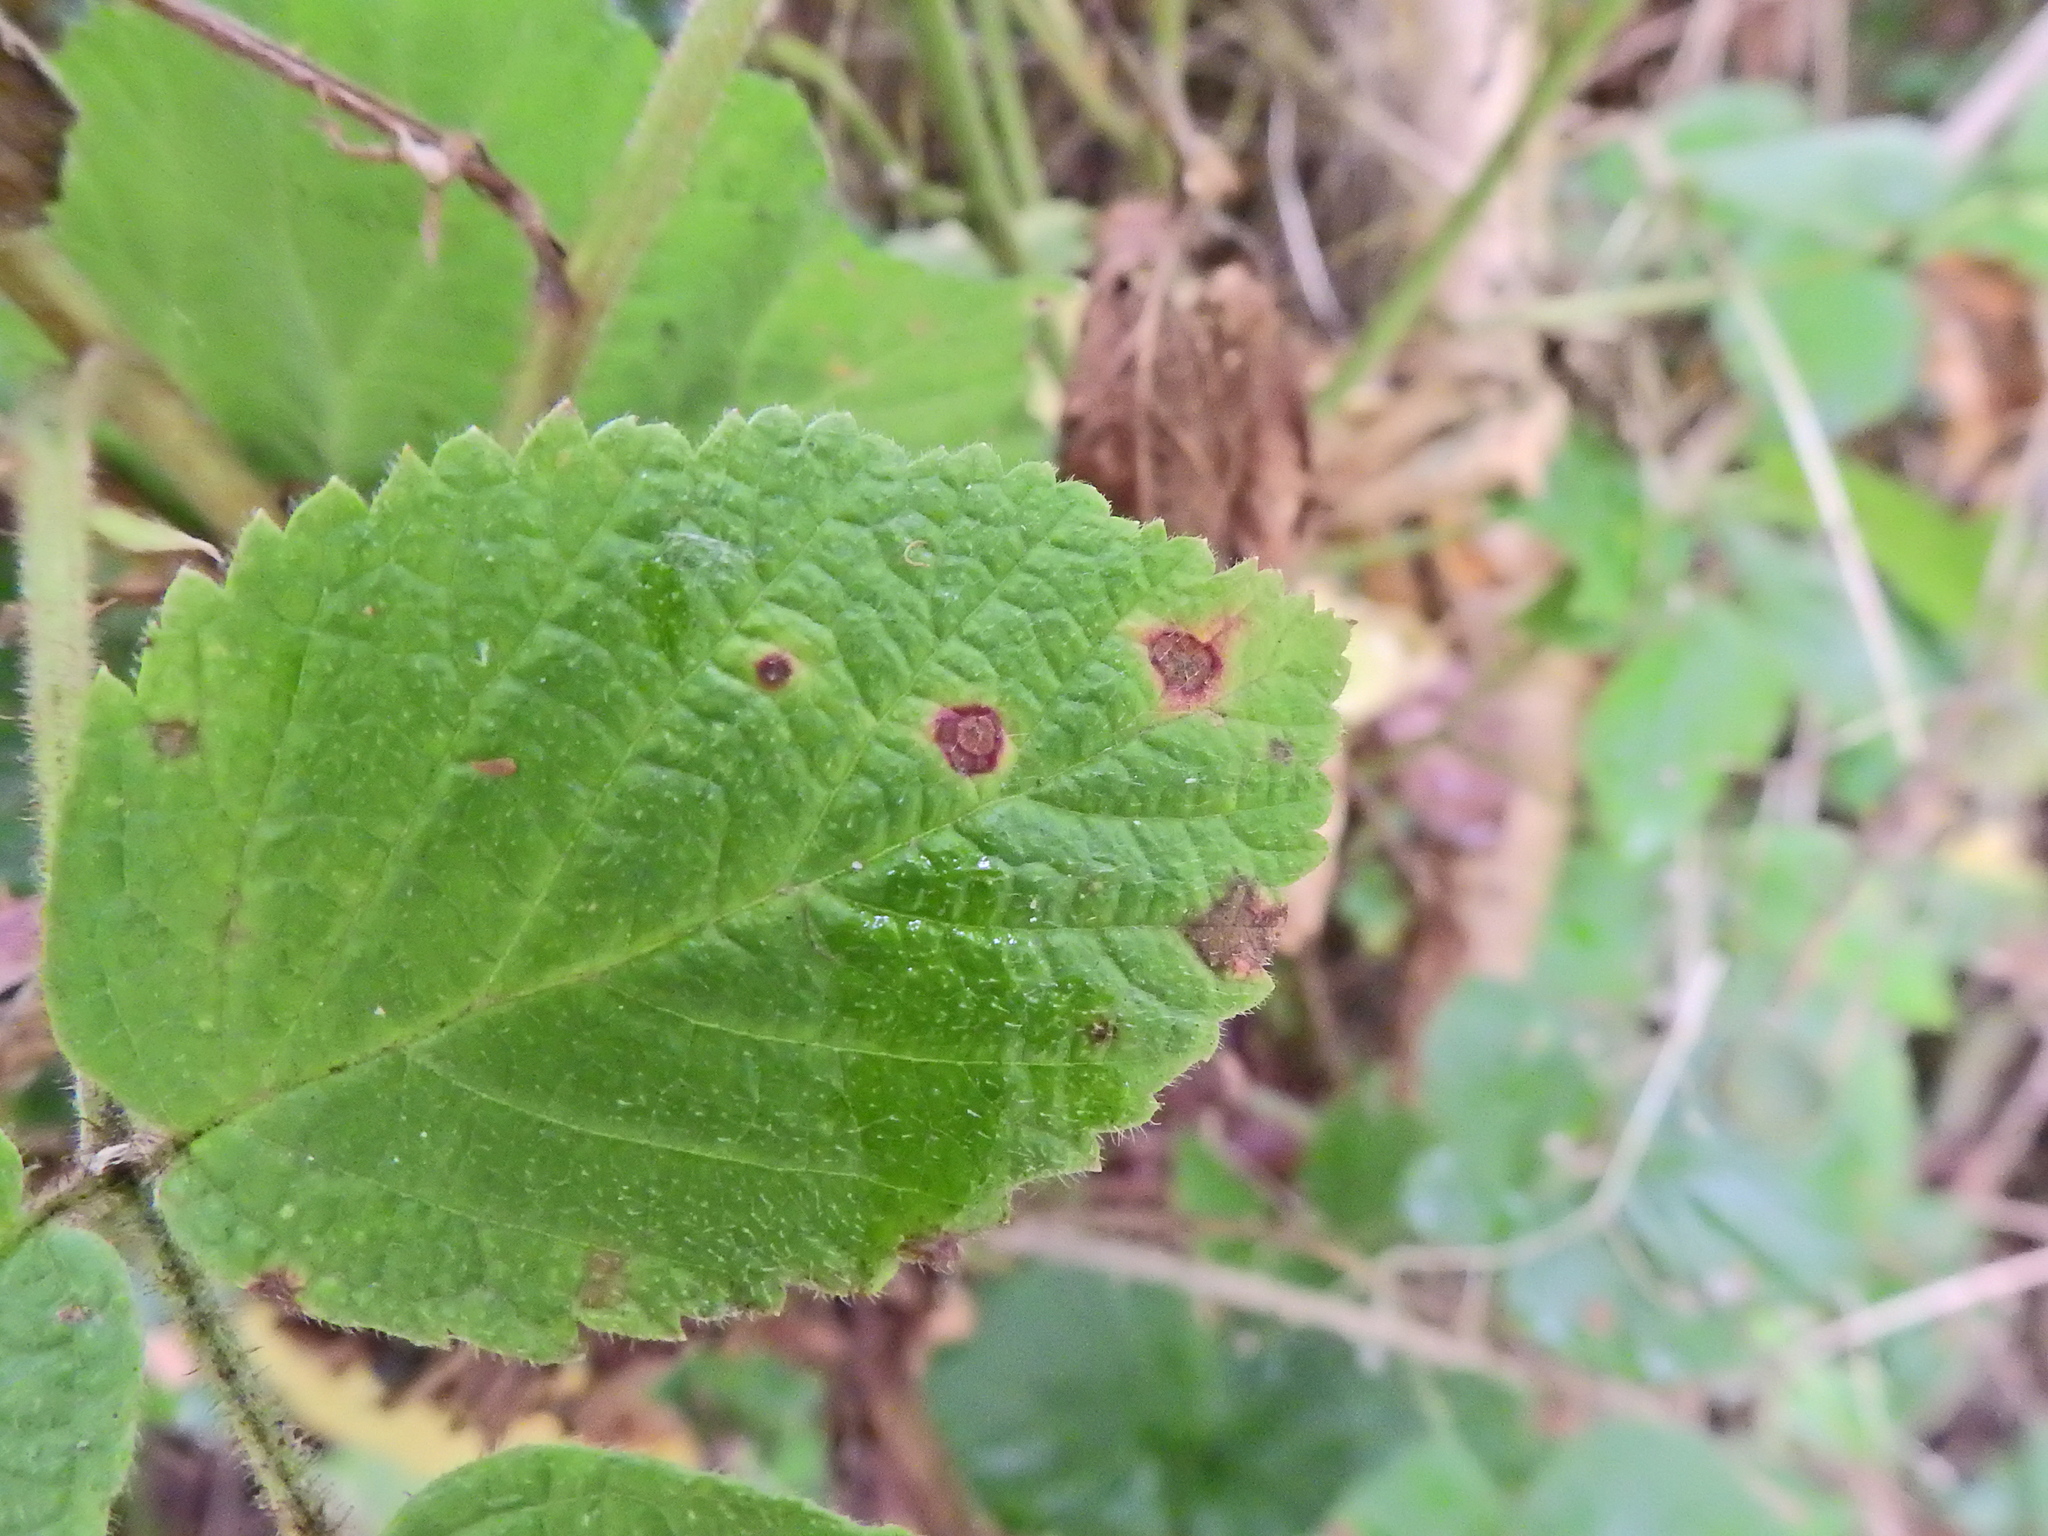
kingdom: Fungi
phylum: Basidiomycota
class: Pucciniomycetes
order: Pucciniales
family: Phragmidiaceae
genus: Kuehneola
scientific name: Kuehneola uredinis
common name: Bramble stem rust
